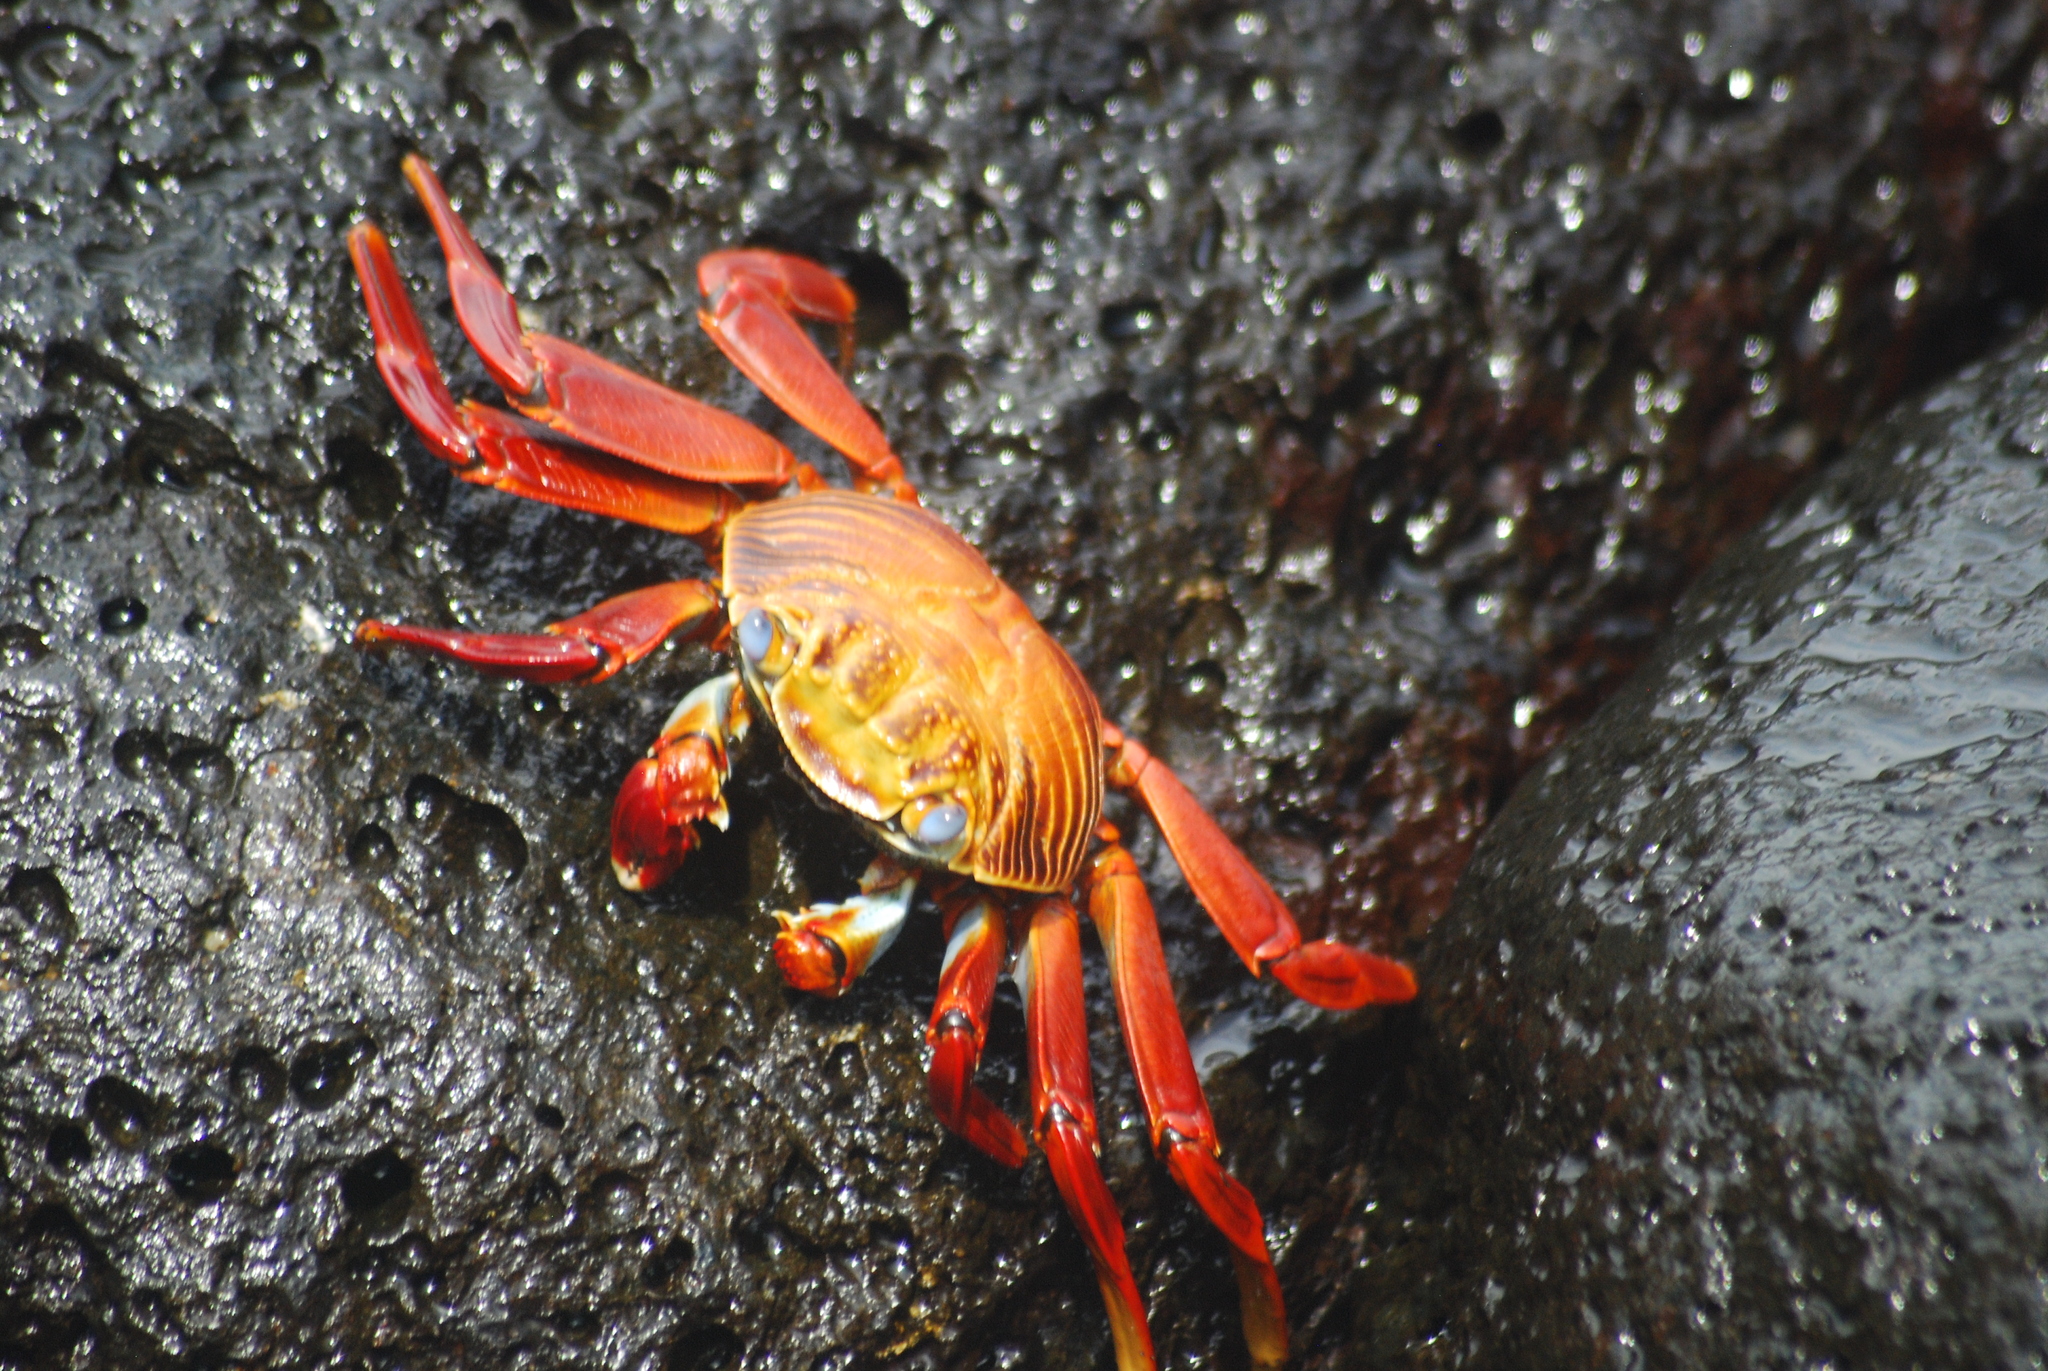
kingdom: Animalia
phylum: Arthropoda
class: Malacostraca
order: Decapoda
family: Grapsidae
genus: Grapsus
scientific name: Grapsus grapsus
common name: Sally lightfoot
